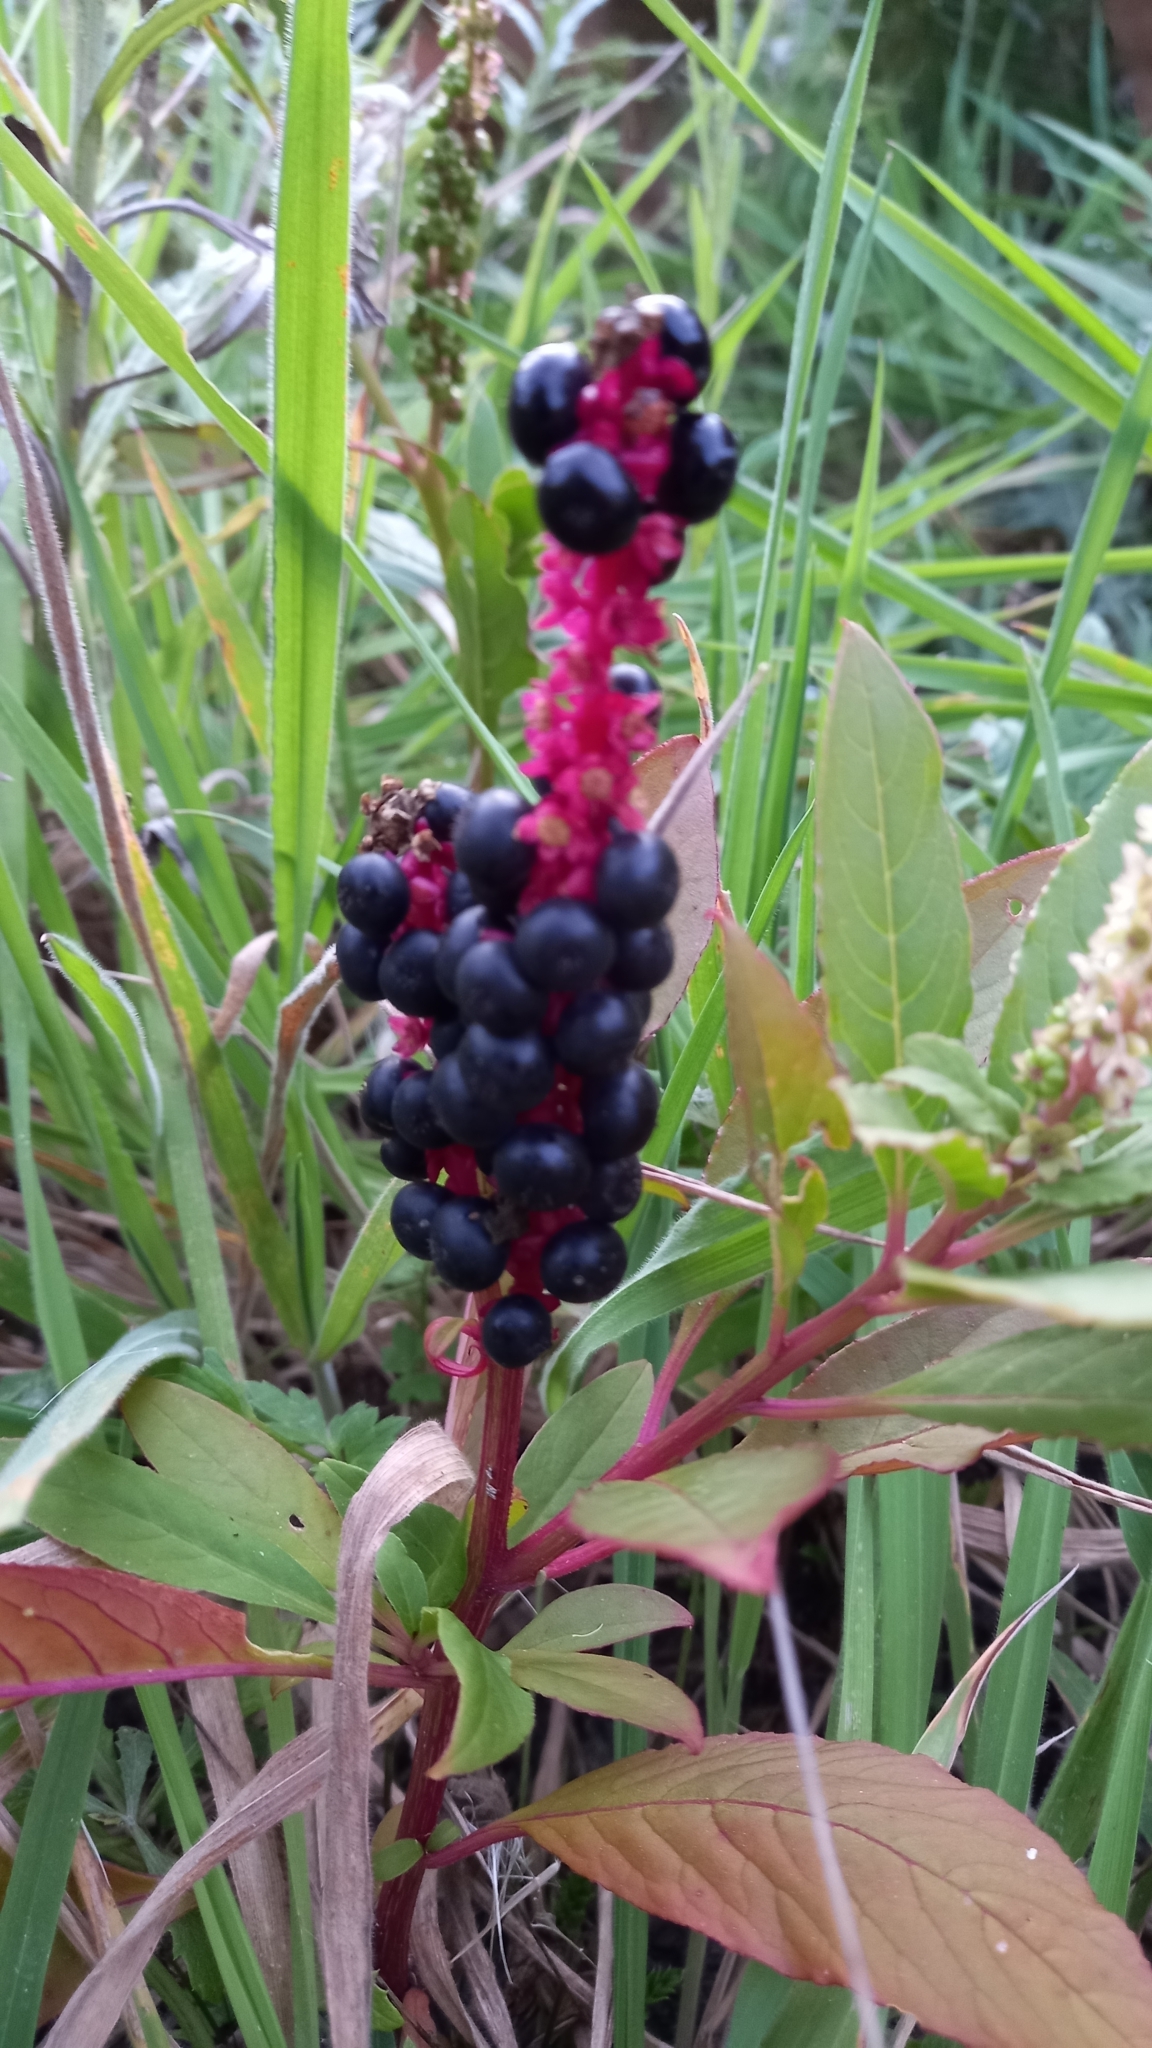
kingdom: Plantae
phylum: Tracheophyta
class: Magnoliopsida
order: Caryophyllales
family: Phytolaccaceae
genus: Phytolacca
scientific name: Phytolacca icosandra
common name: Button pokeweed
